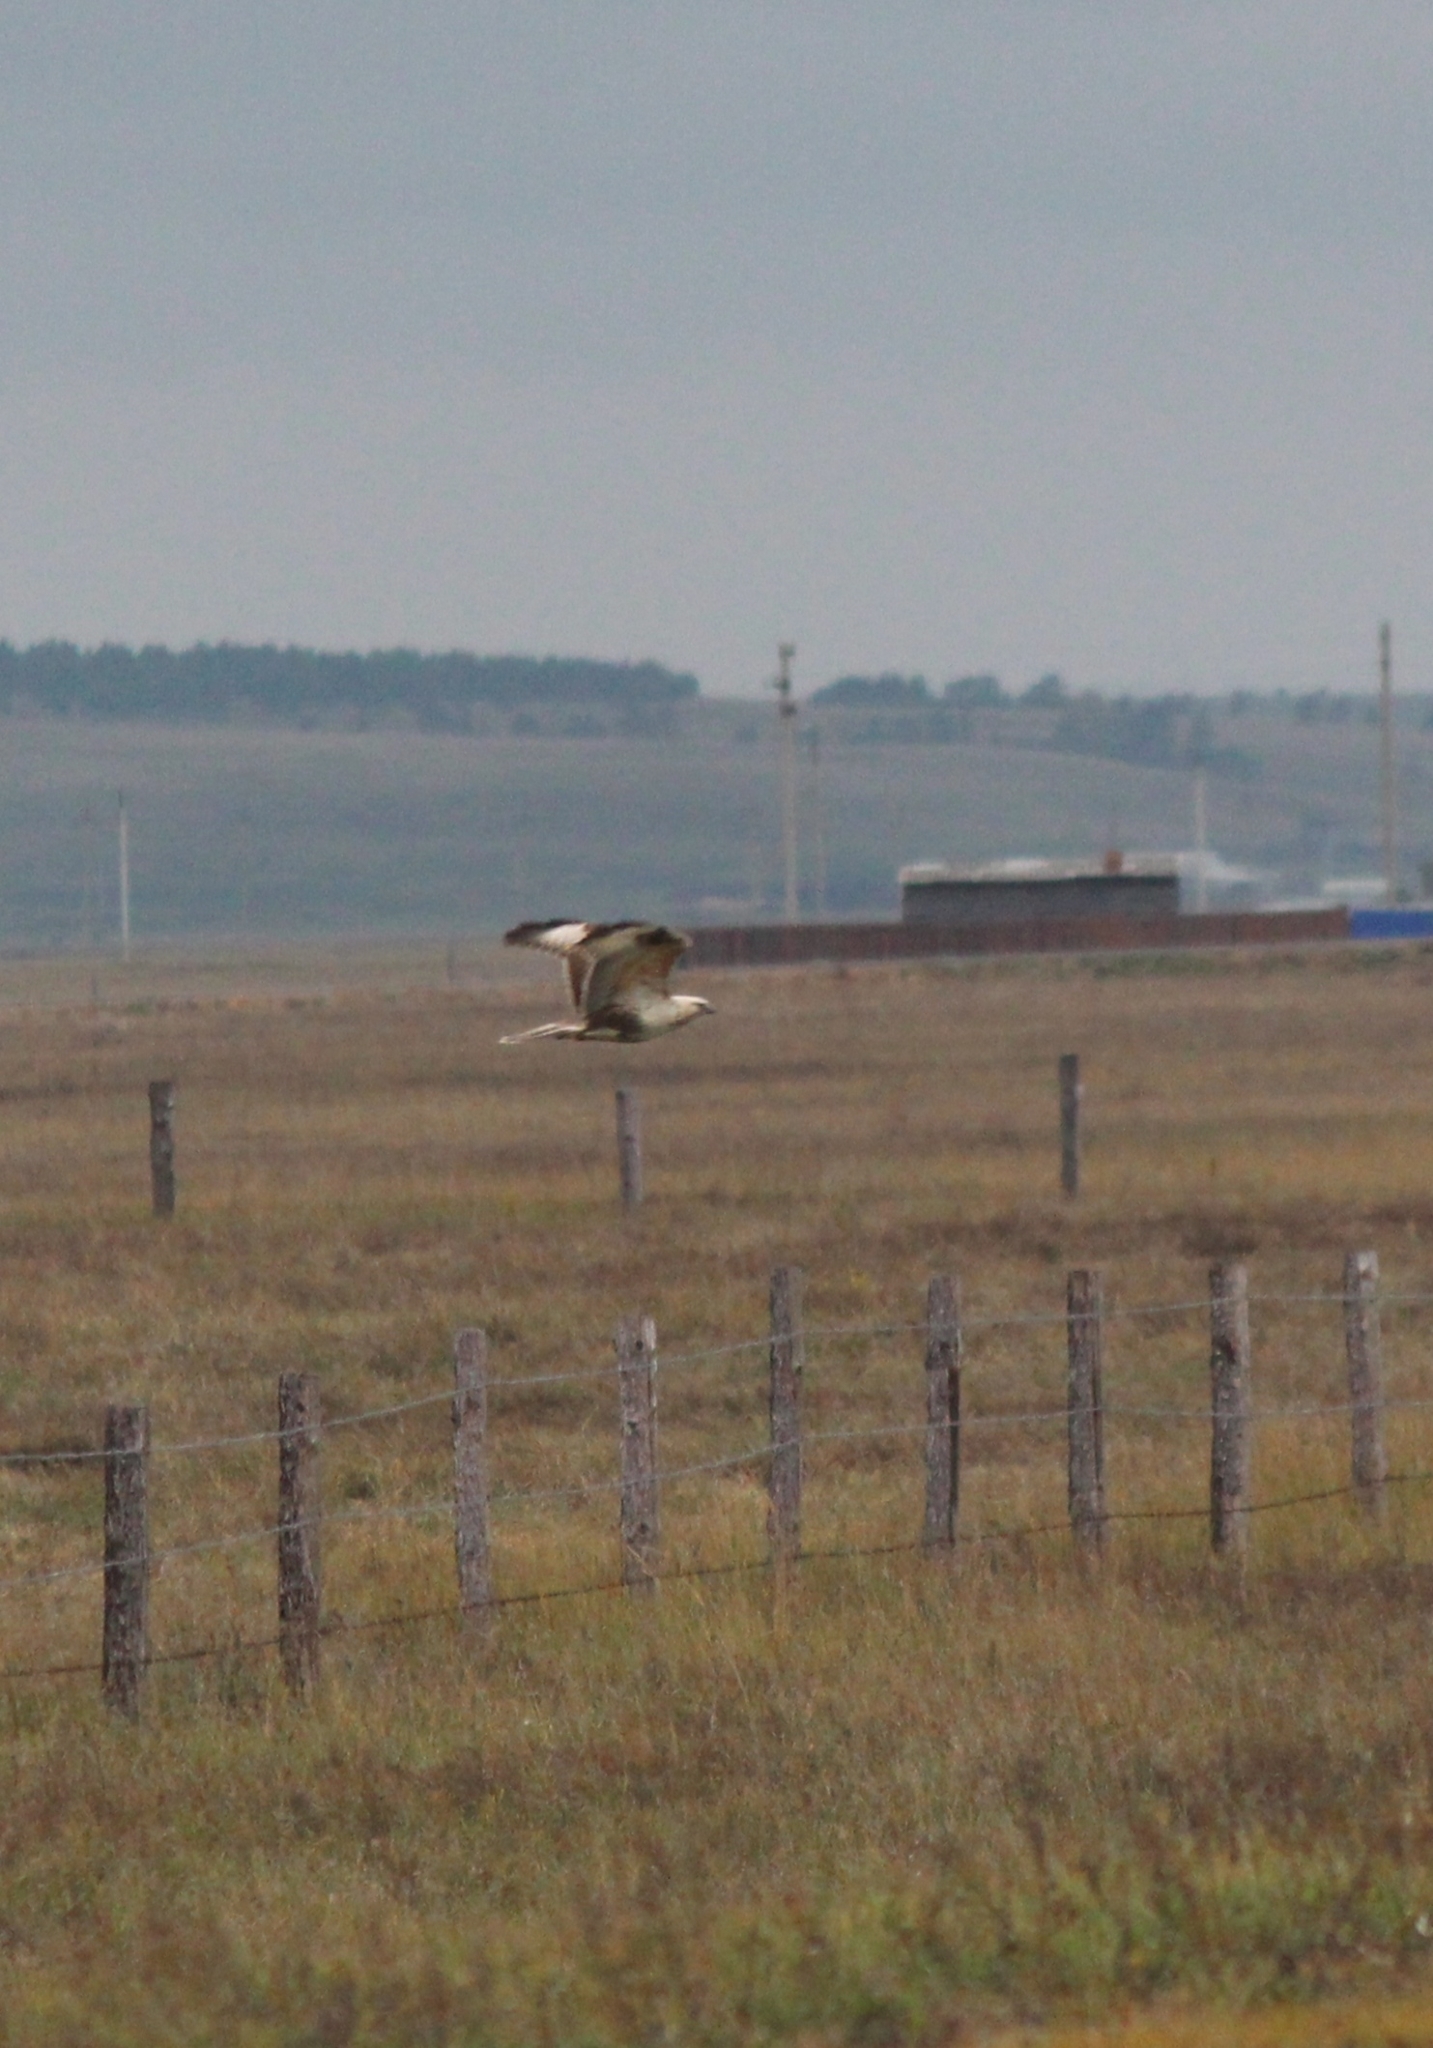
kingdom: Animalia
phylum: Chordata
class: Aves
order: Accipitriformes
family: Accipitridae
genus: Buteo
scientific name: Buteo hemilasius
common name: Upland buzzard
